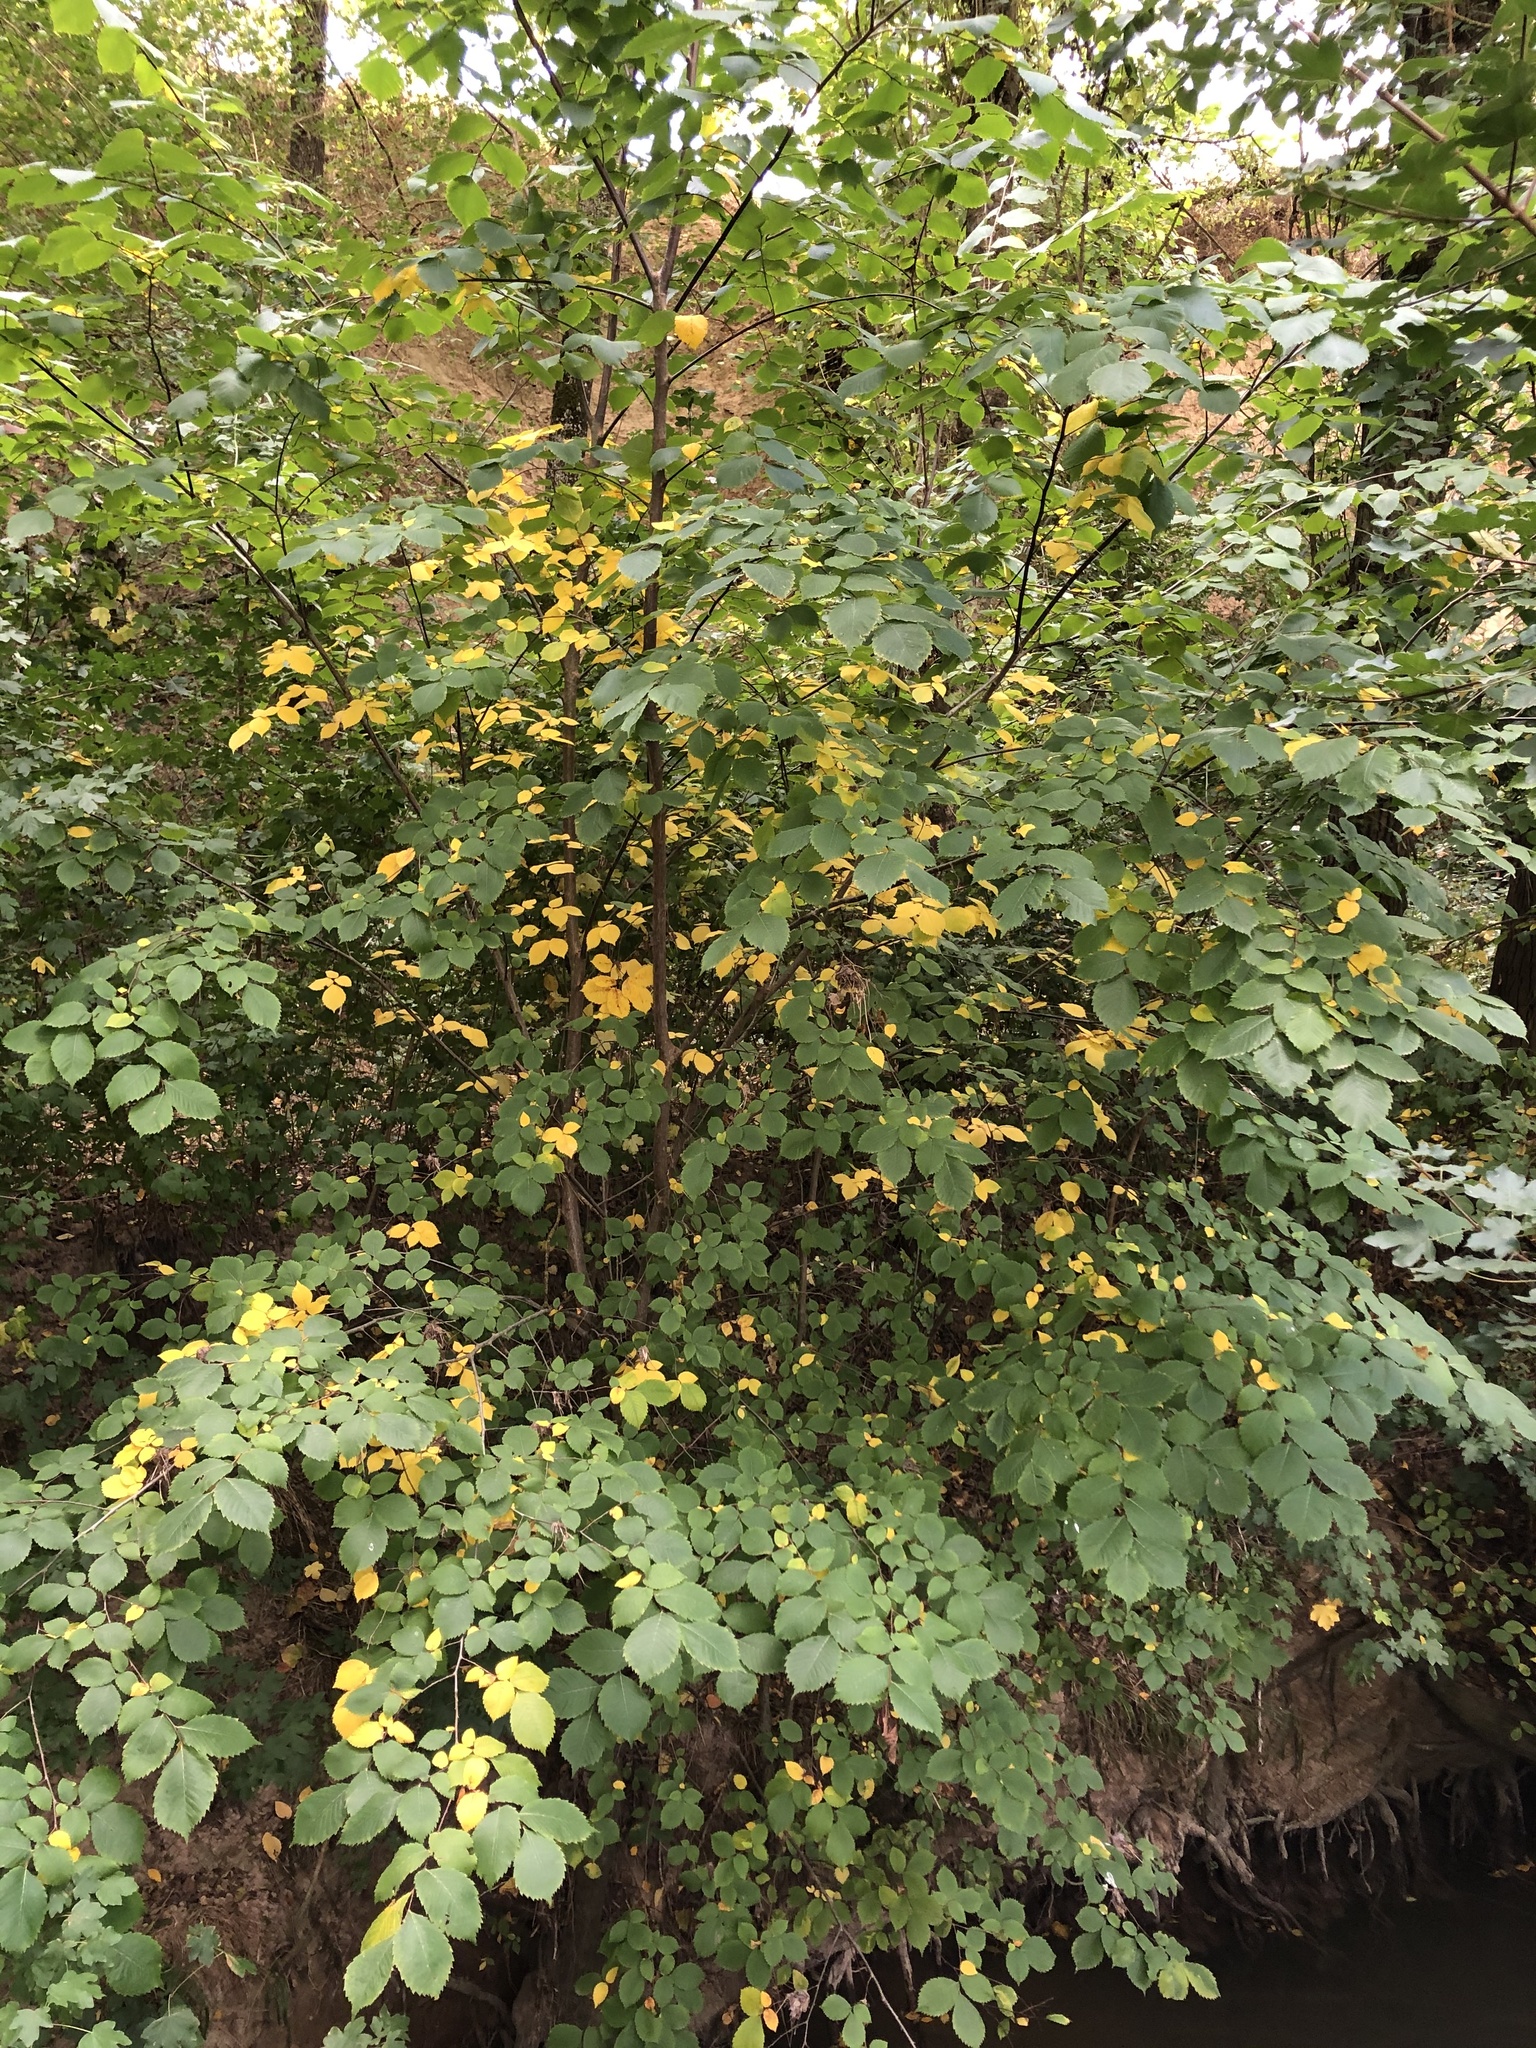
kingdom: Plantae
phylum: Tracheophyta
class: Magnoliopsida
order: Rosales
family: Ulmaceae
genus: Ulmus
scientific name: Ulmus minor
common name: Small-leaved elm
